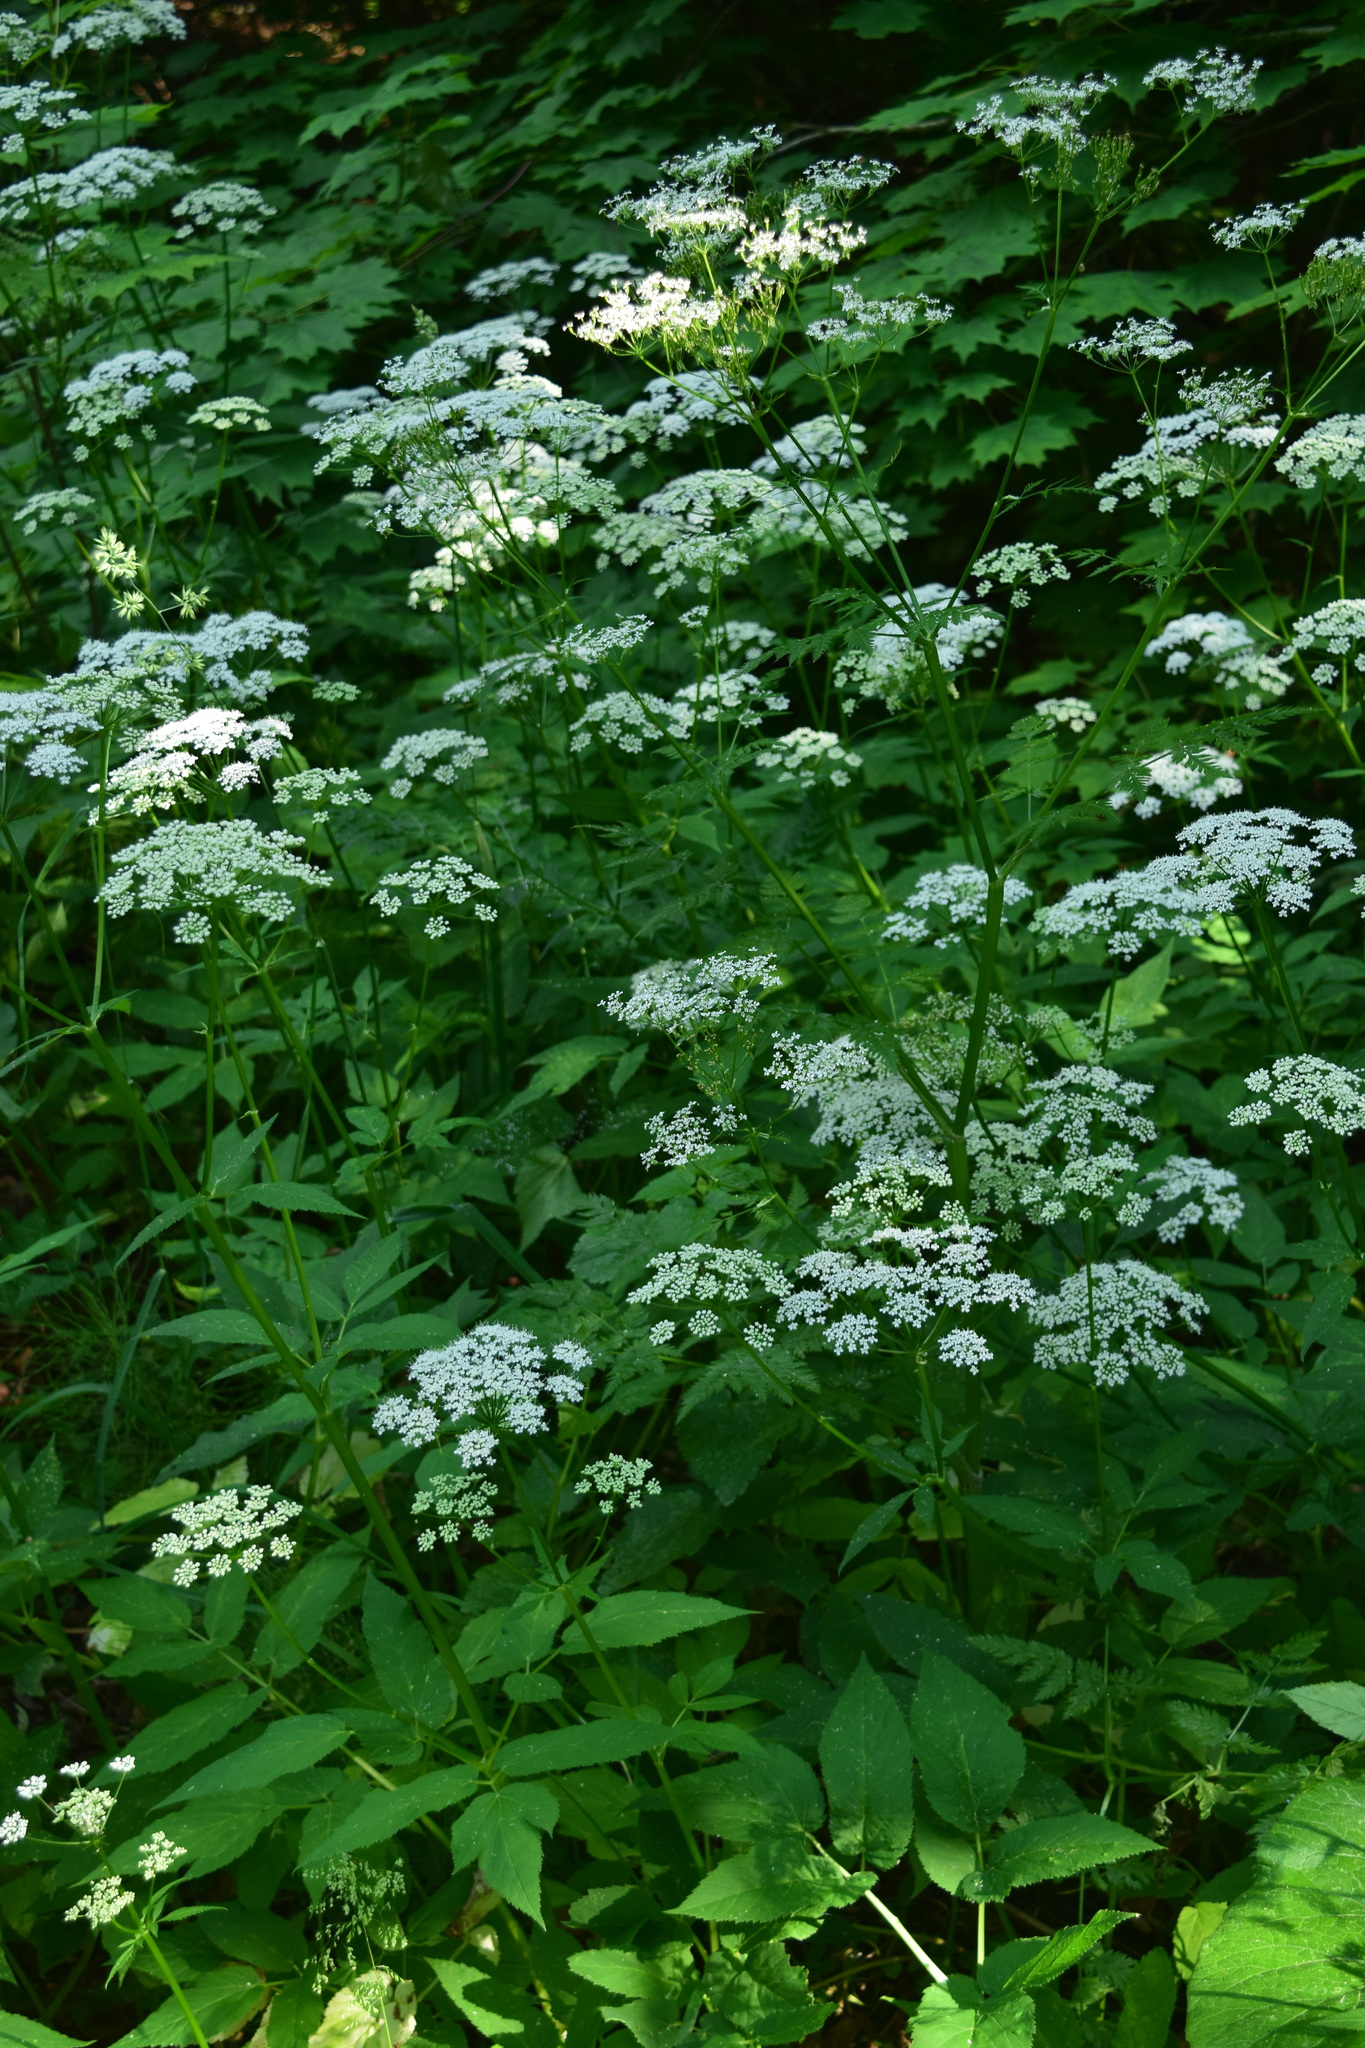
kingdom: Plantae
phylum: Tracheophyta
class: Magnoliopsida
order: Apiales
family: Apiaceae
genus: Aegopodium
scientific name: Aegopodium podagraria
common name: Ground-elder
